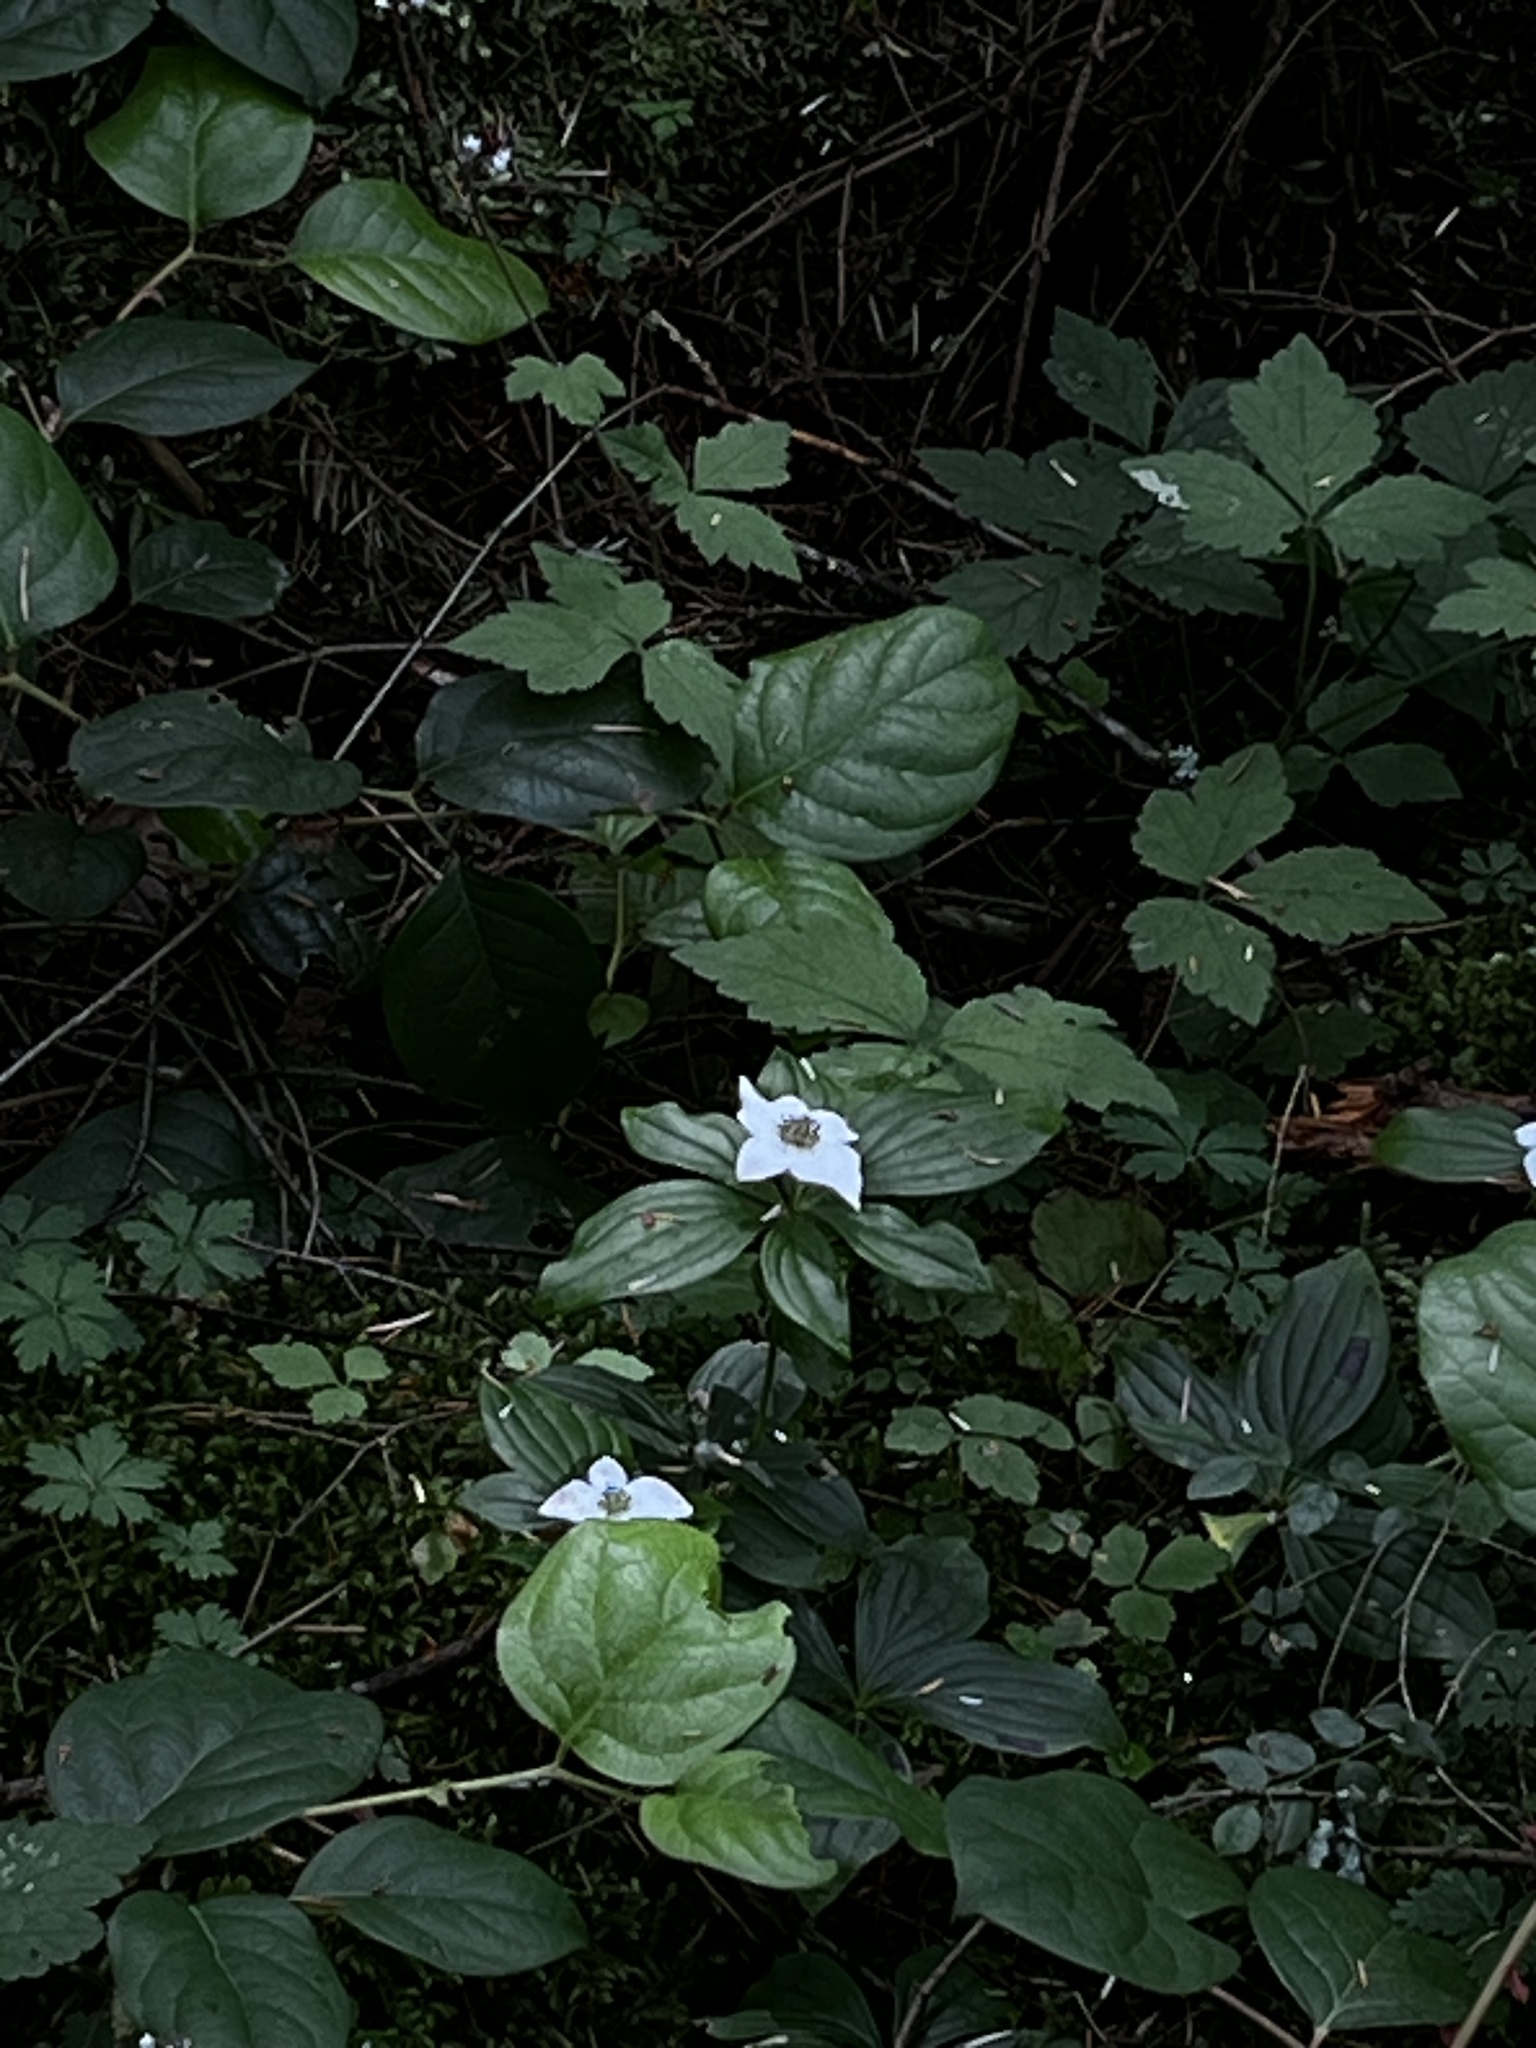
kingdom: Plantae
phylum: Tracheophyta
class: Magnoliopsida
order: Cornales
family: Cornaceae
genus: Cornus
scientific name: Cornus unalaschkensis
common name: Alaska bunchberry
